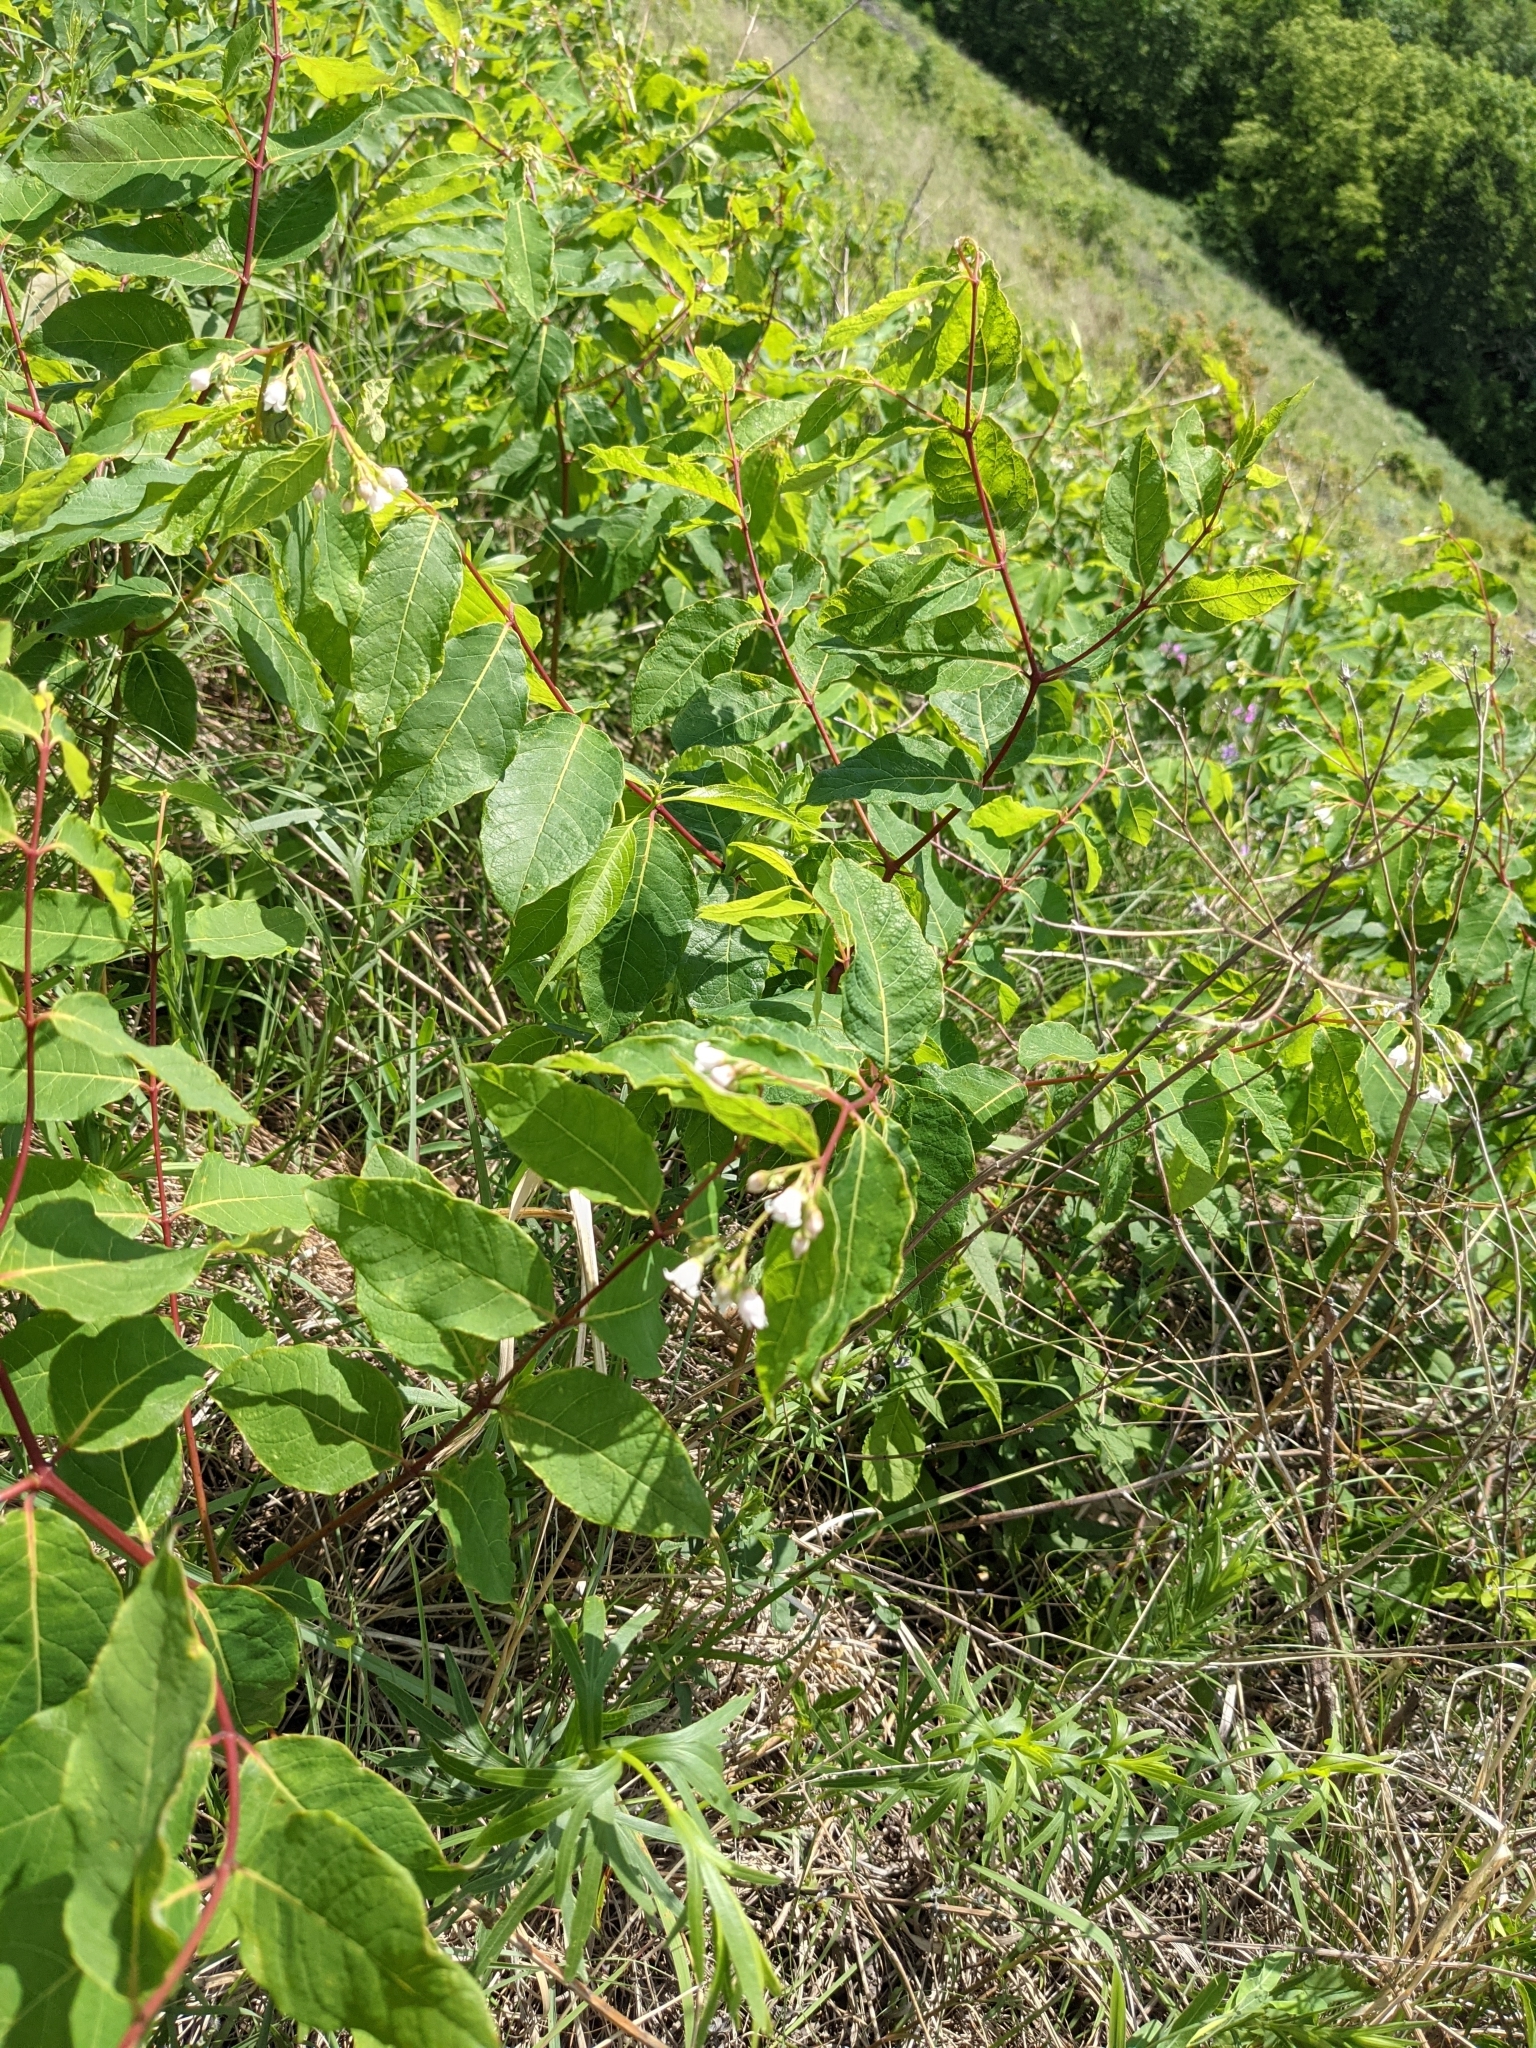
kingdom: Plantae
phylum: Tracheophyta
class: Magnoliopsida
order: Gentianales
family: Apocynaceae
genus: Apocynum
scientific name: Apocynum androsaemifolium
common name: Spreading dogbane
